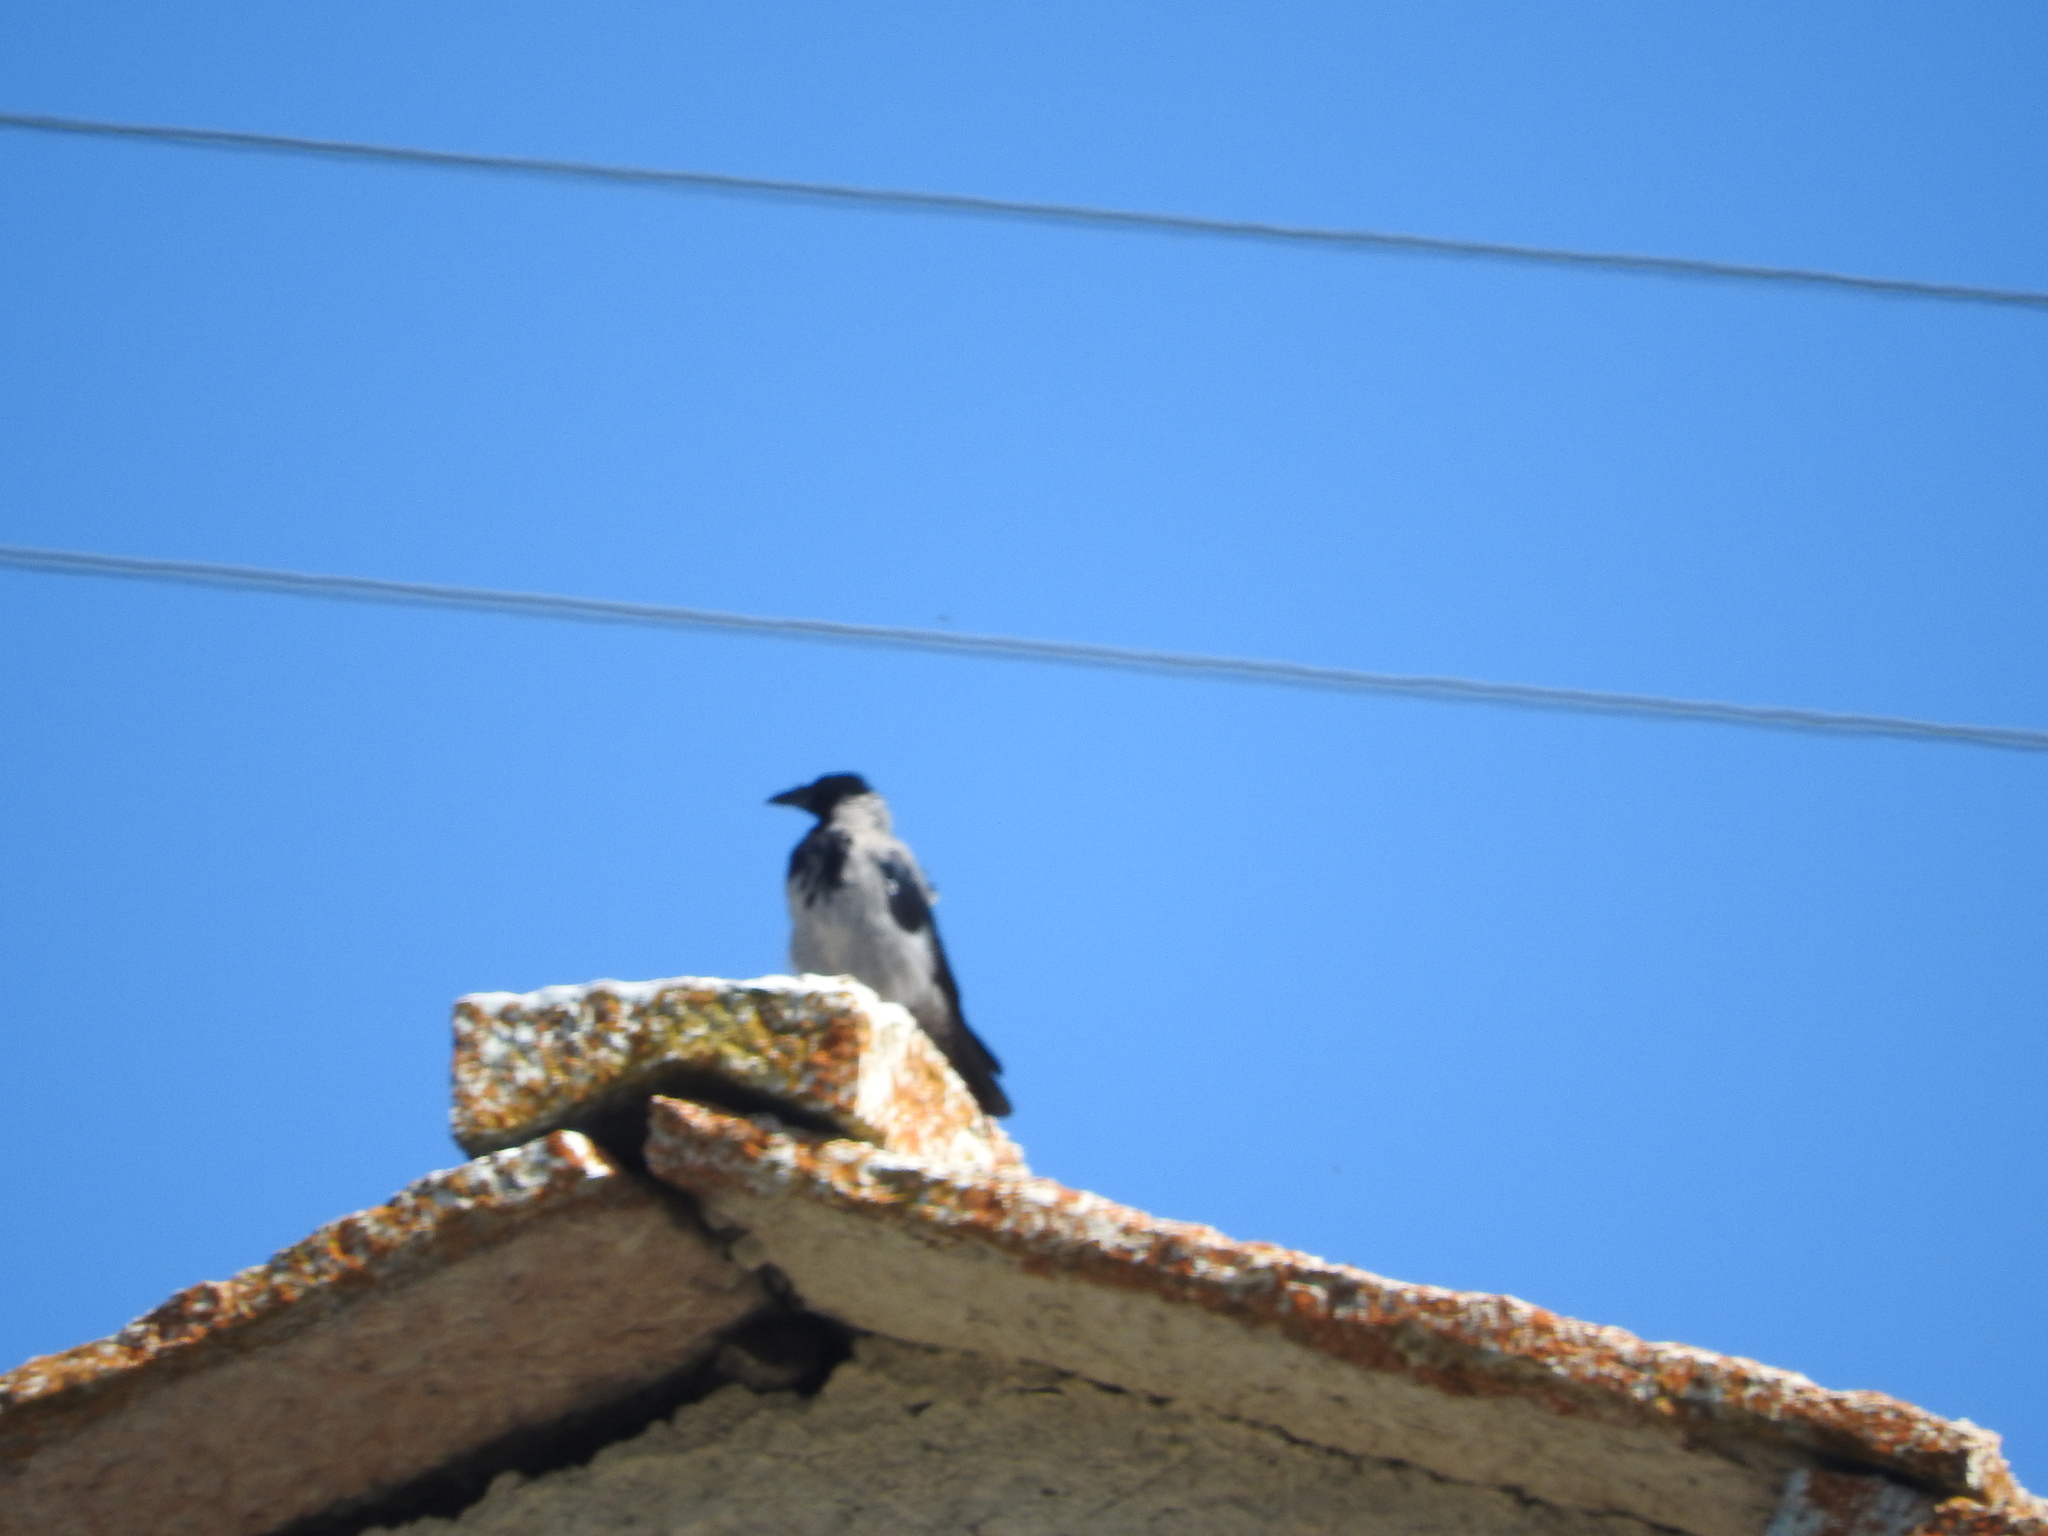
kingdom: Animalia
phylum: Chordata
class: Aves
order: Passeriformes
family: Corvidae
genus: Corvus
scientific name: Corvus cornix
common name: Hooded crow
